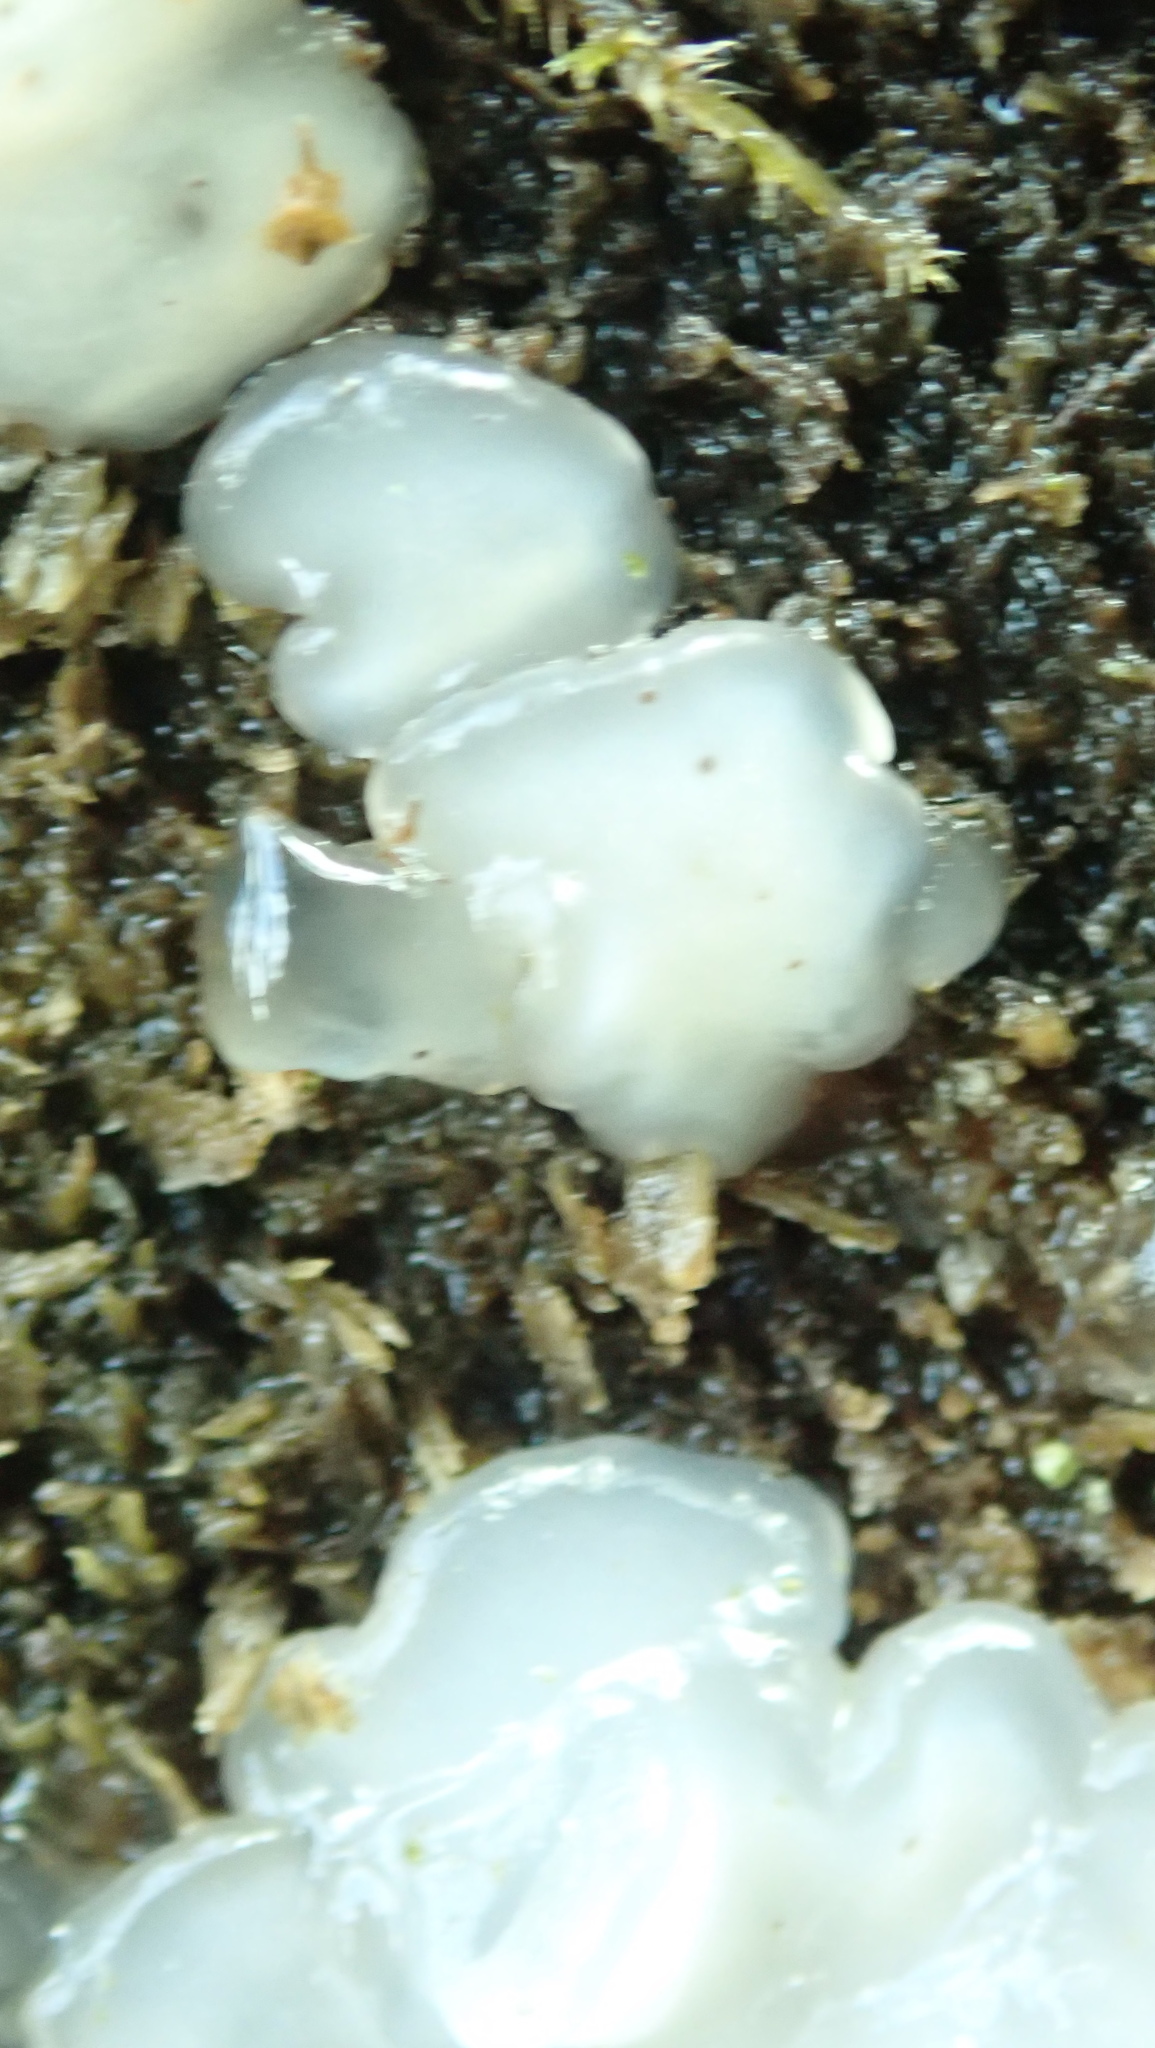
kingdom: Fungi
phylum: Basidiomycota
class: Agaricomycetes
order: Auriculariales
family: Hyaloriaceae
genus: Myxarium
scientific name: Myxarium nucleatum
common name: Crystal brain fungus
